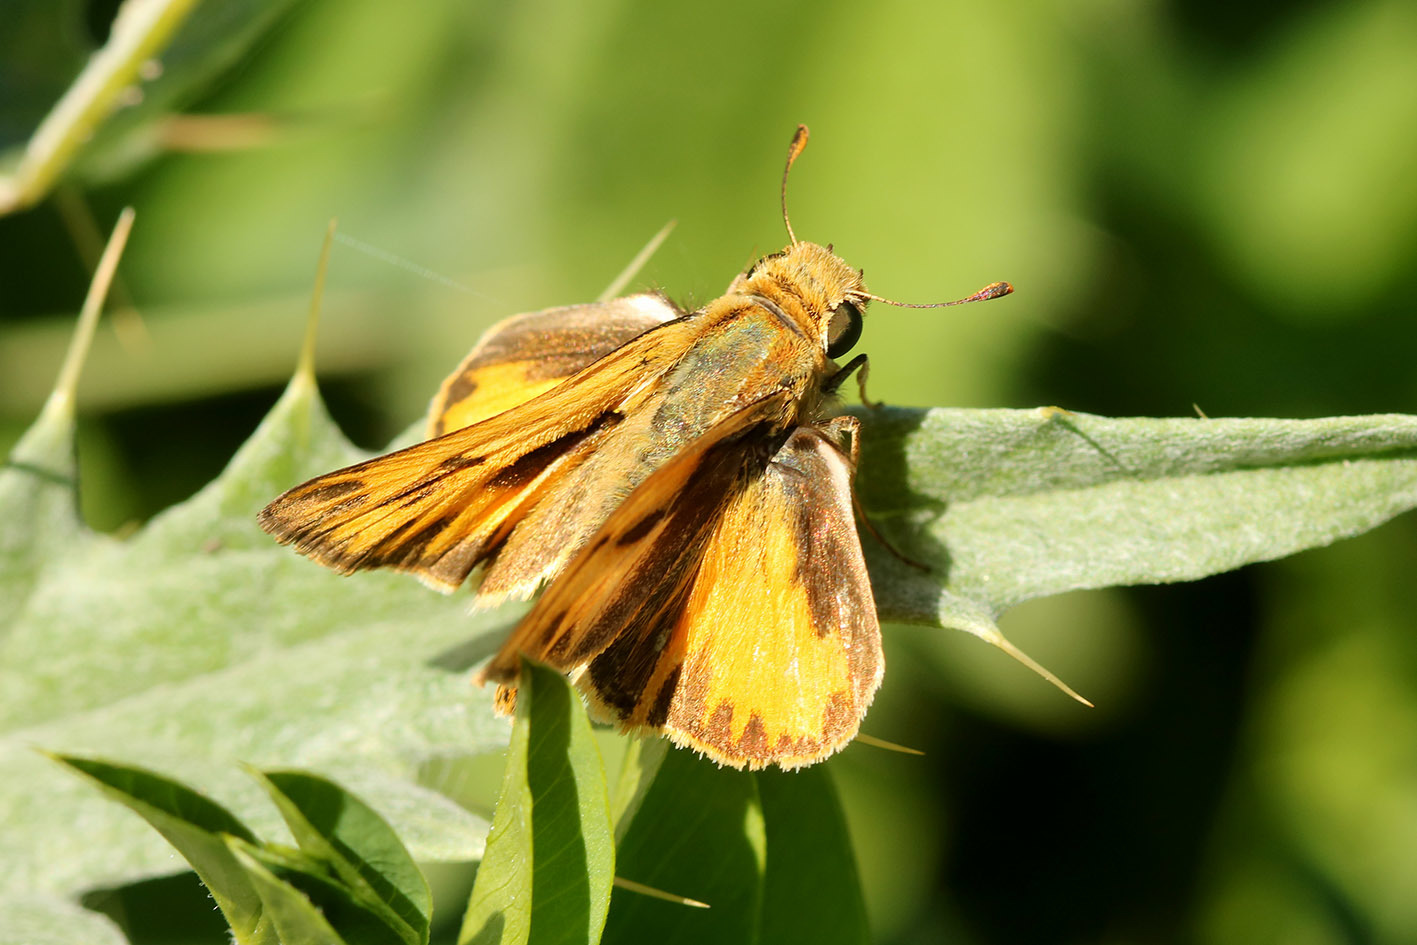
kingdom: Animalia
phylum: Arthropoda
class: Insecta
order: Lepidoptera
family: Hesperiidae
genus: Hylephila
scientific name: Hylephila phyleus
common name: Fiery skipper
